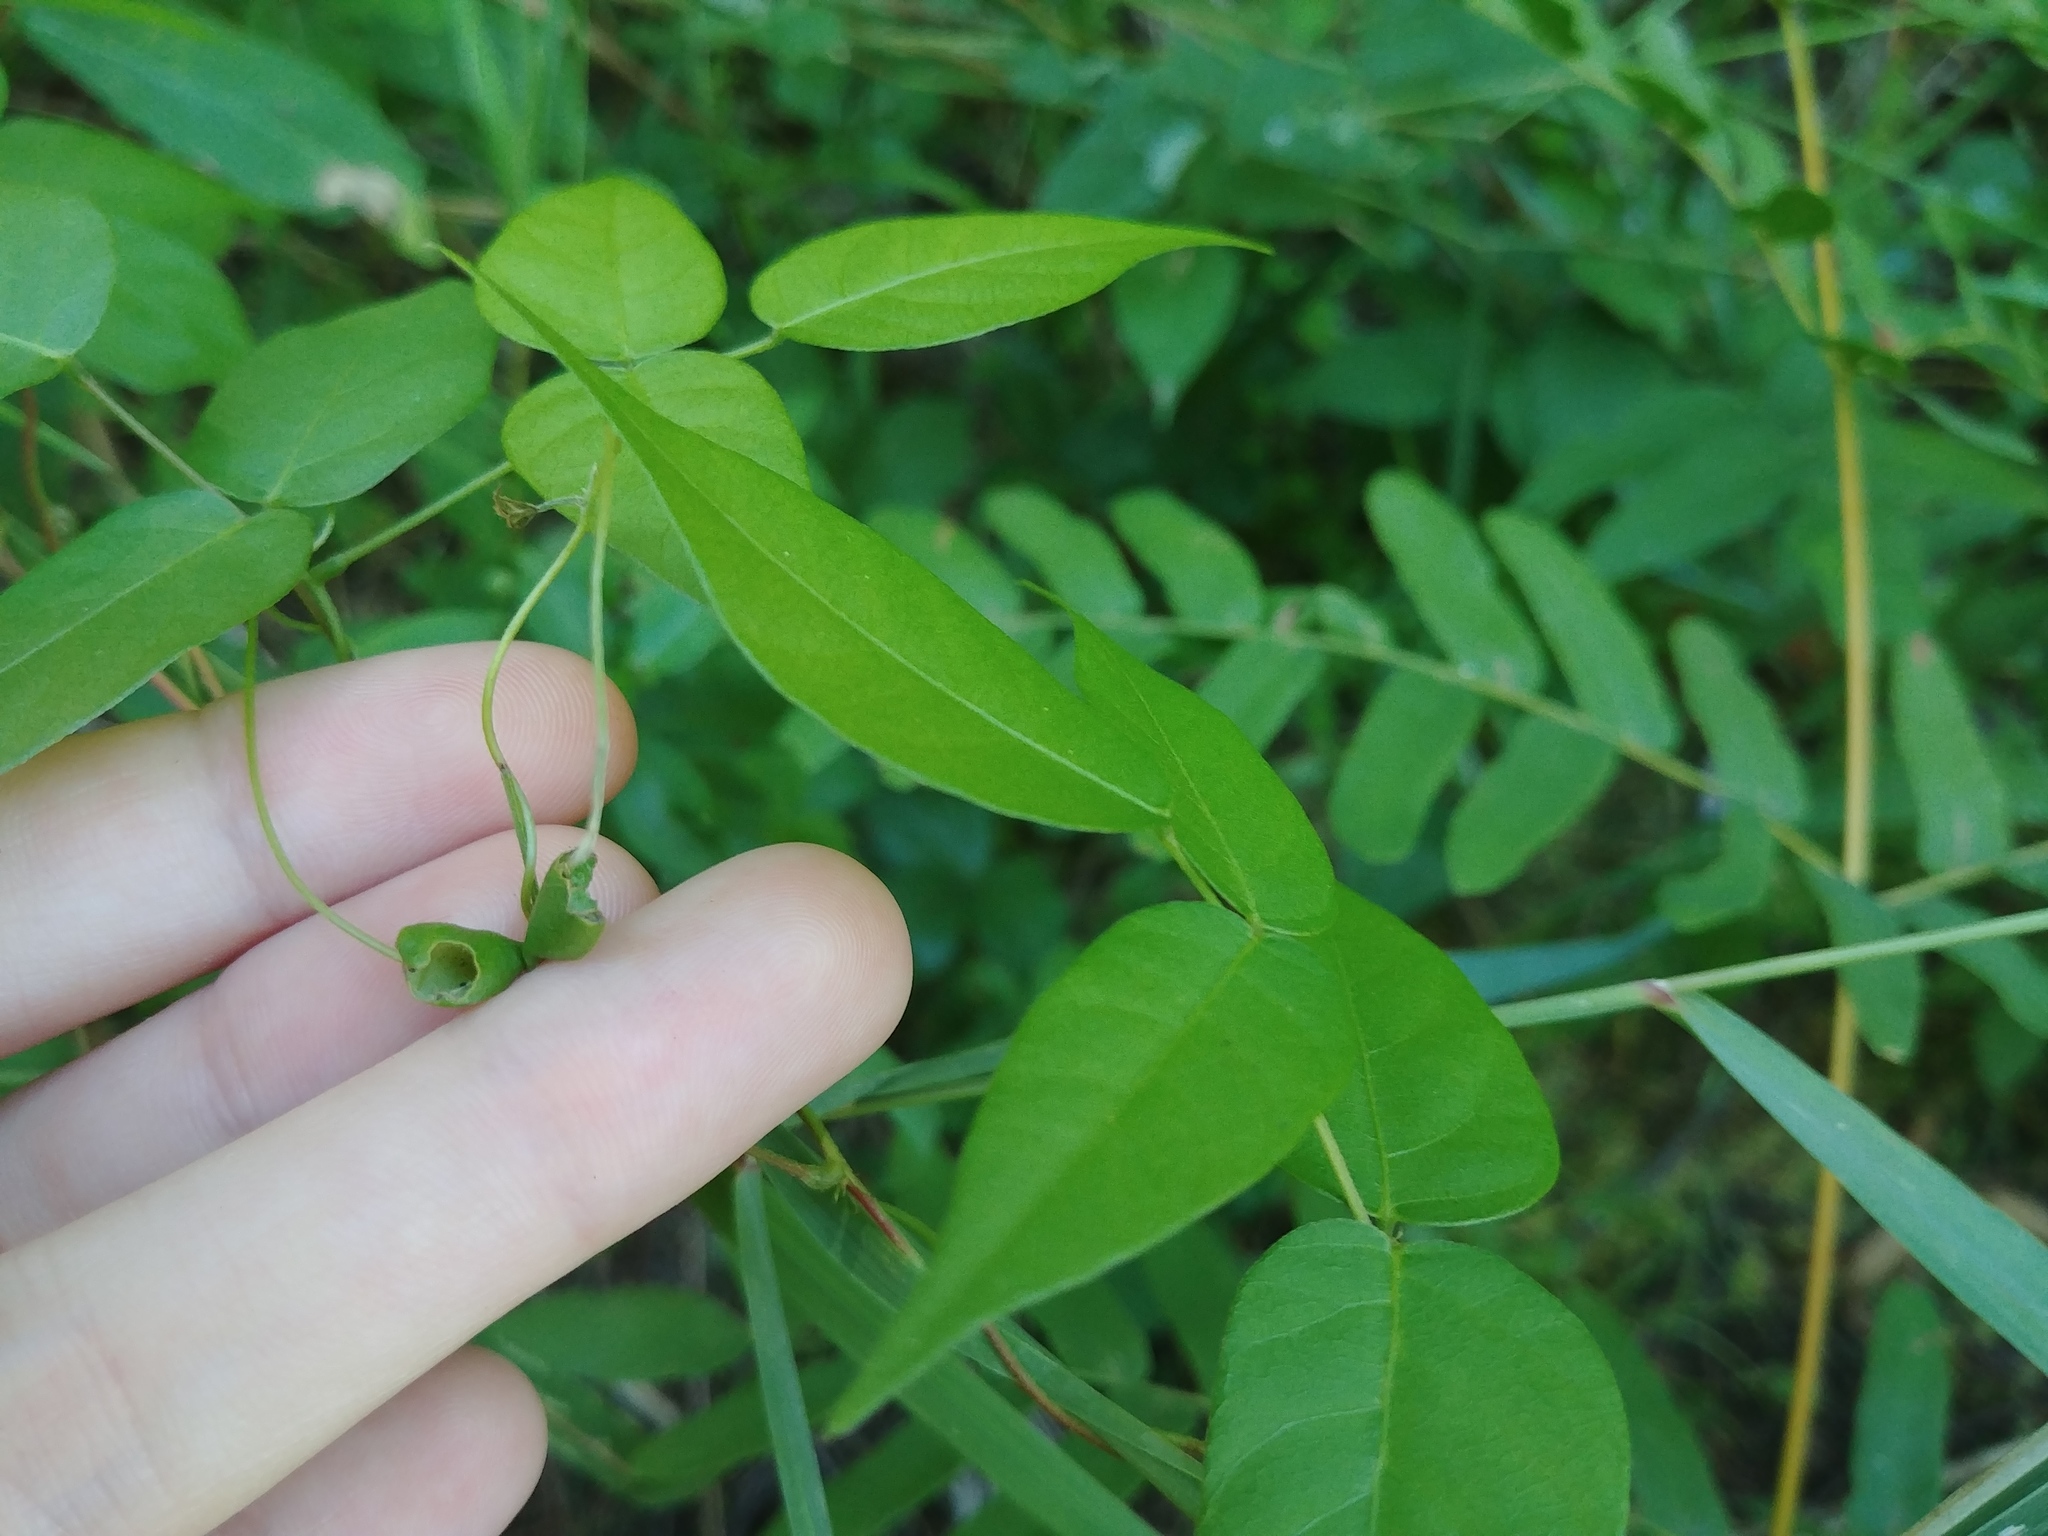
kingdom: Plantae
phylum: Tracheophyta
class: Magnoliopsida
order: Fabales
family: Fabaceae
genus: Apios
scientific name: Apios americana
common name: American potato-bean
